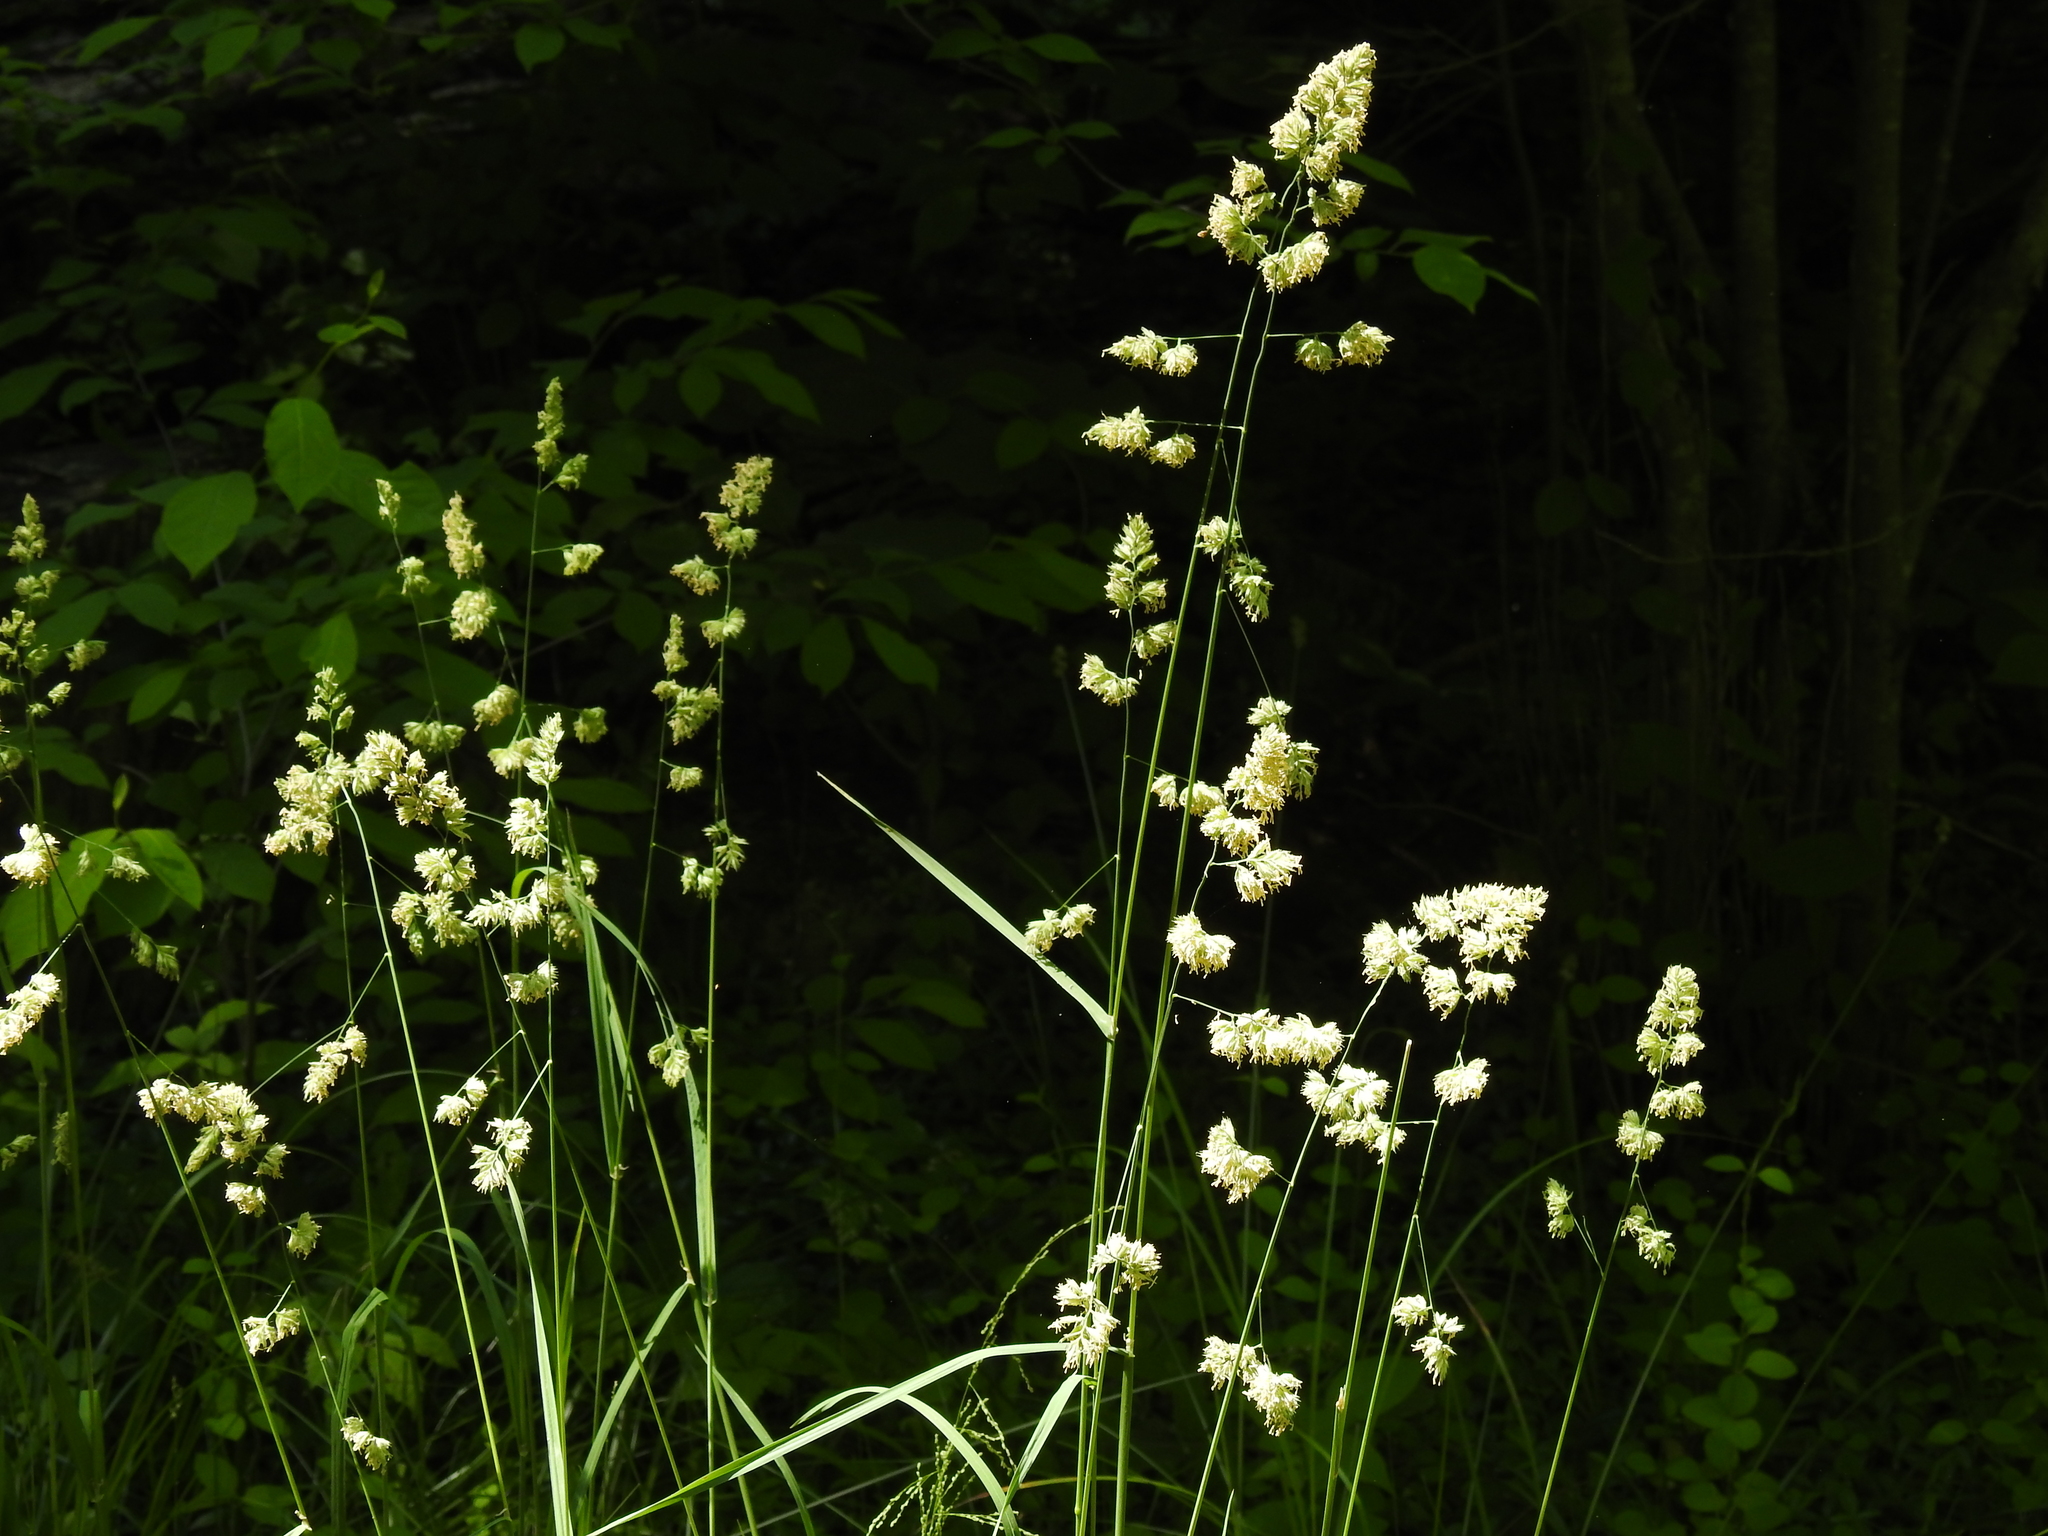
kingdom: Plantae
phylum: Tracheophyta
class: Liliopsida
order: Poales
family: Poaceae
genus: Dactylis
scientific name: Dactylis glomerata
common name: Orchardgrass
